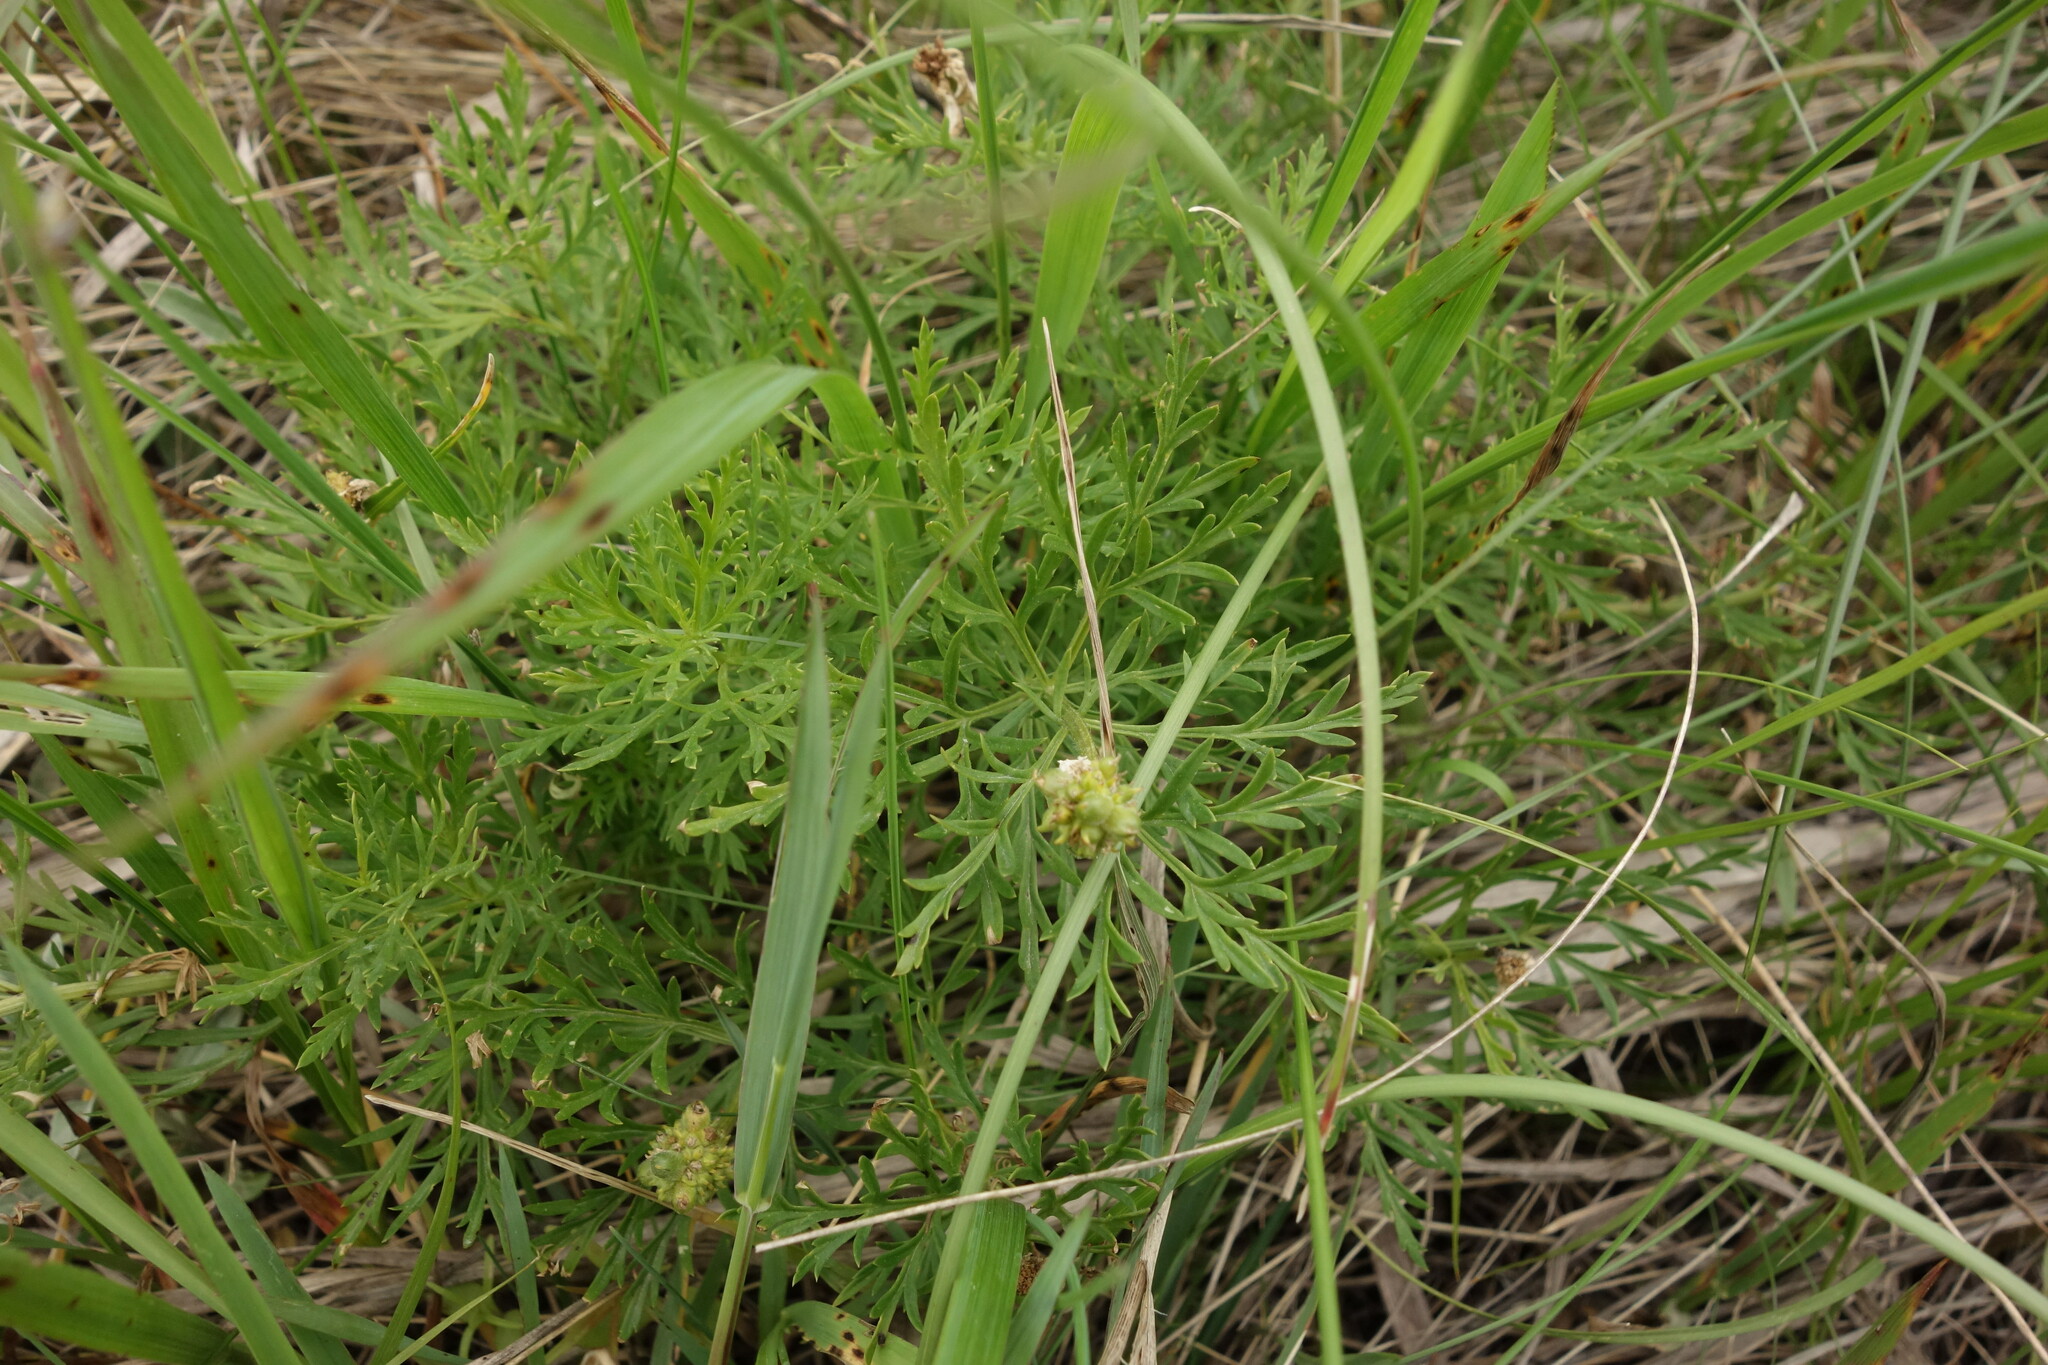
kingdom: Plantae
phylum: Tracheophyta
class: Magnoliopsida
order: Ranunculales
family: Ranunculaceae
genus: Adonis
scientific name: Adonis volgensis
